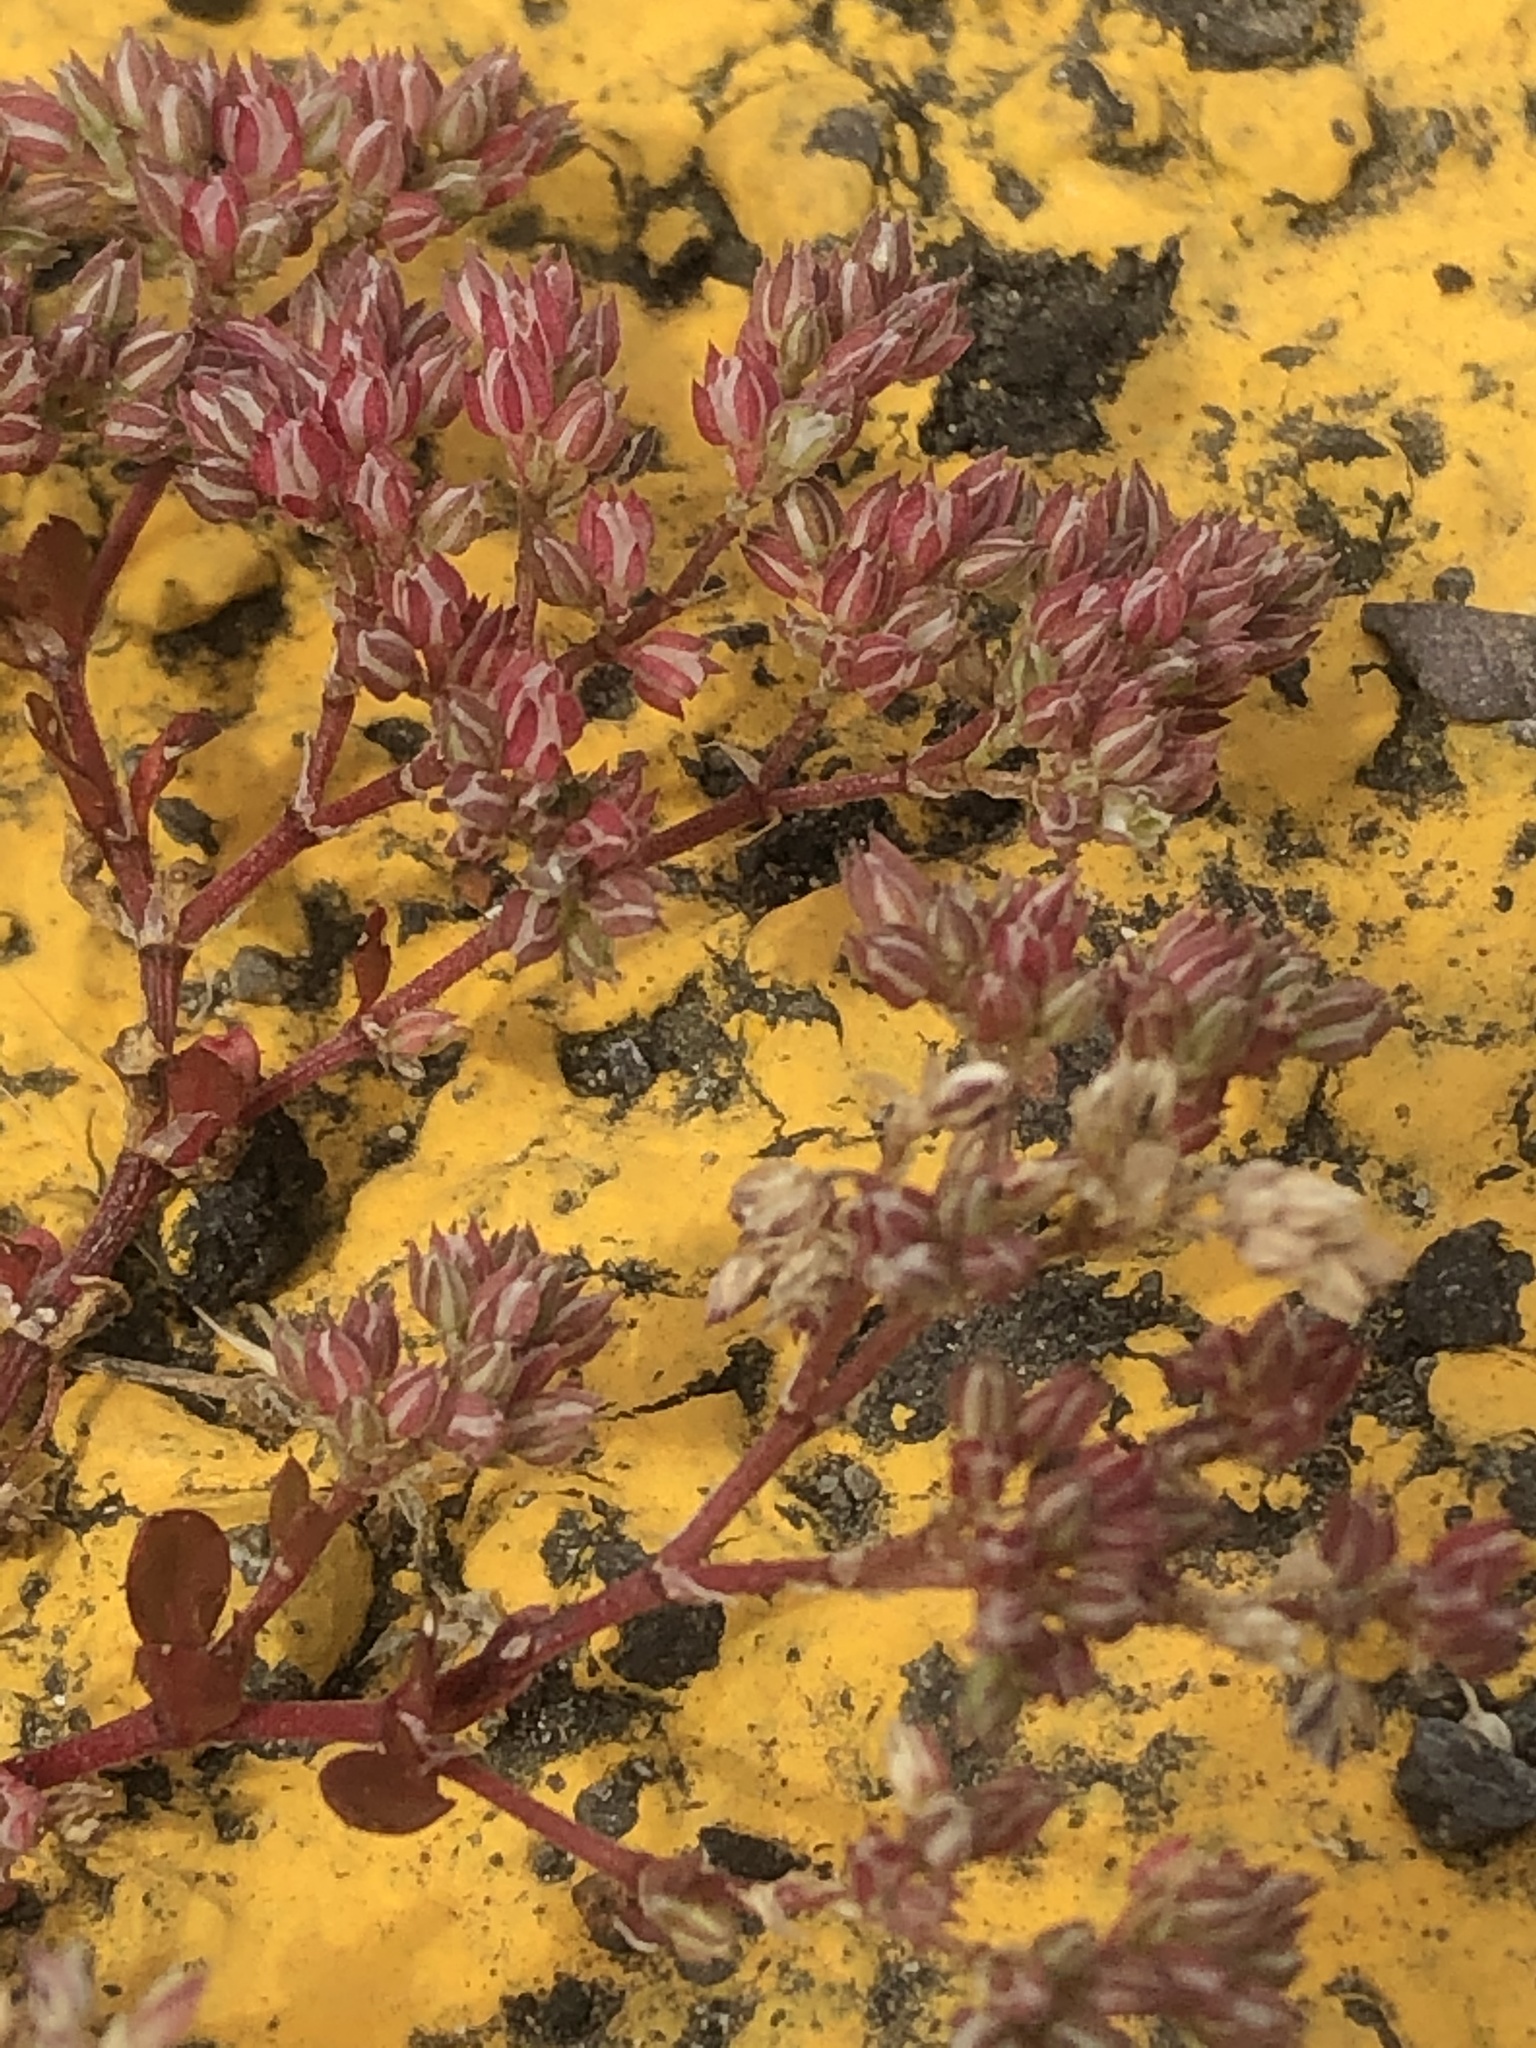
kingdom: Plantae
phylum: Tracheophyta
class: Magnoliopsida
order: Caryophyllales
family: Caryophyllaceae
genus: Polycarpon
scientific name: Polycarpon tetraphyllum
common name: Four-leaved all-seed
